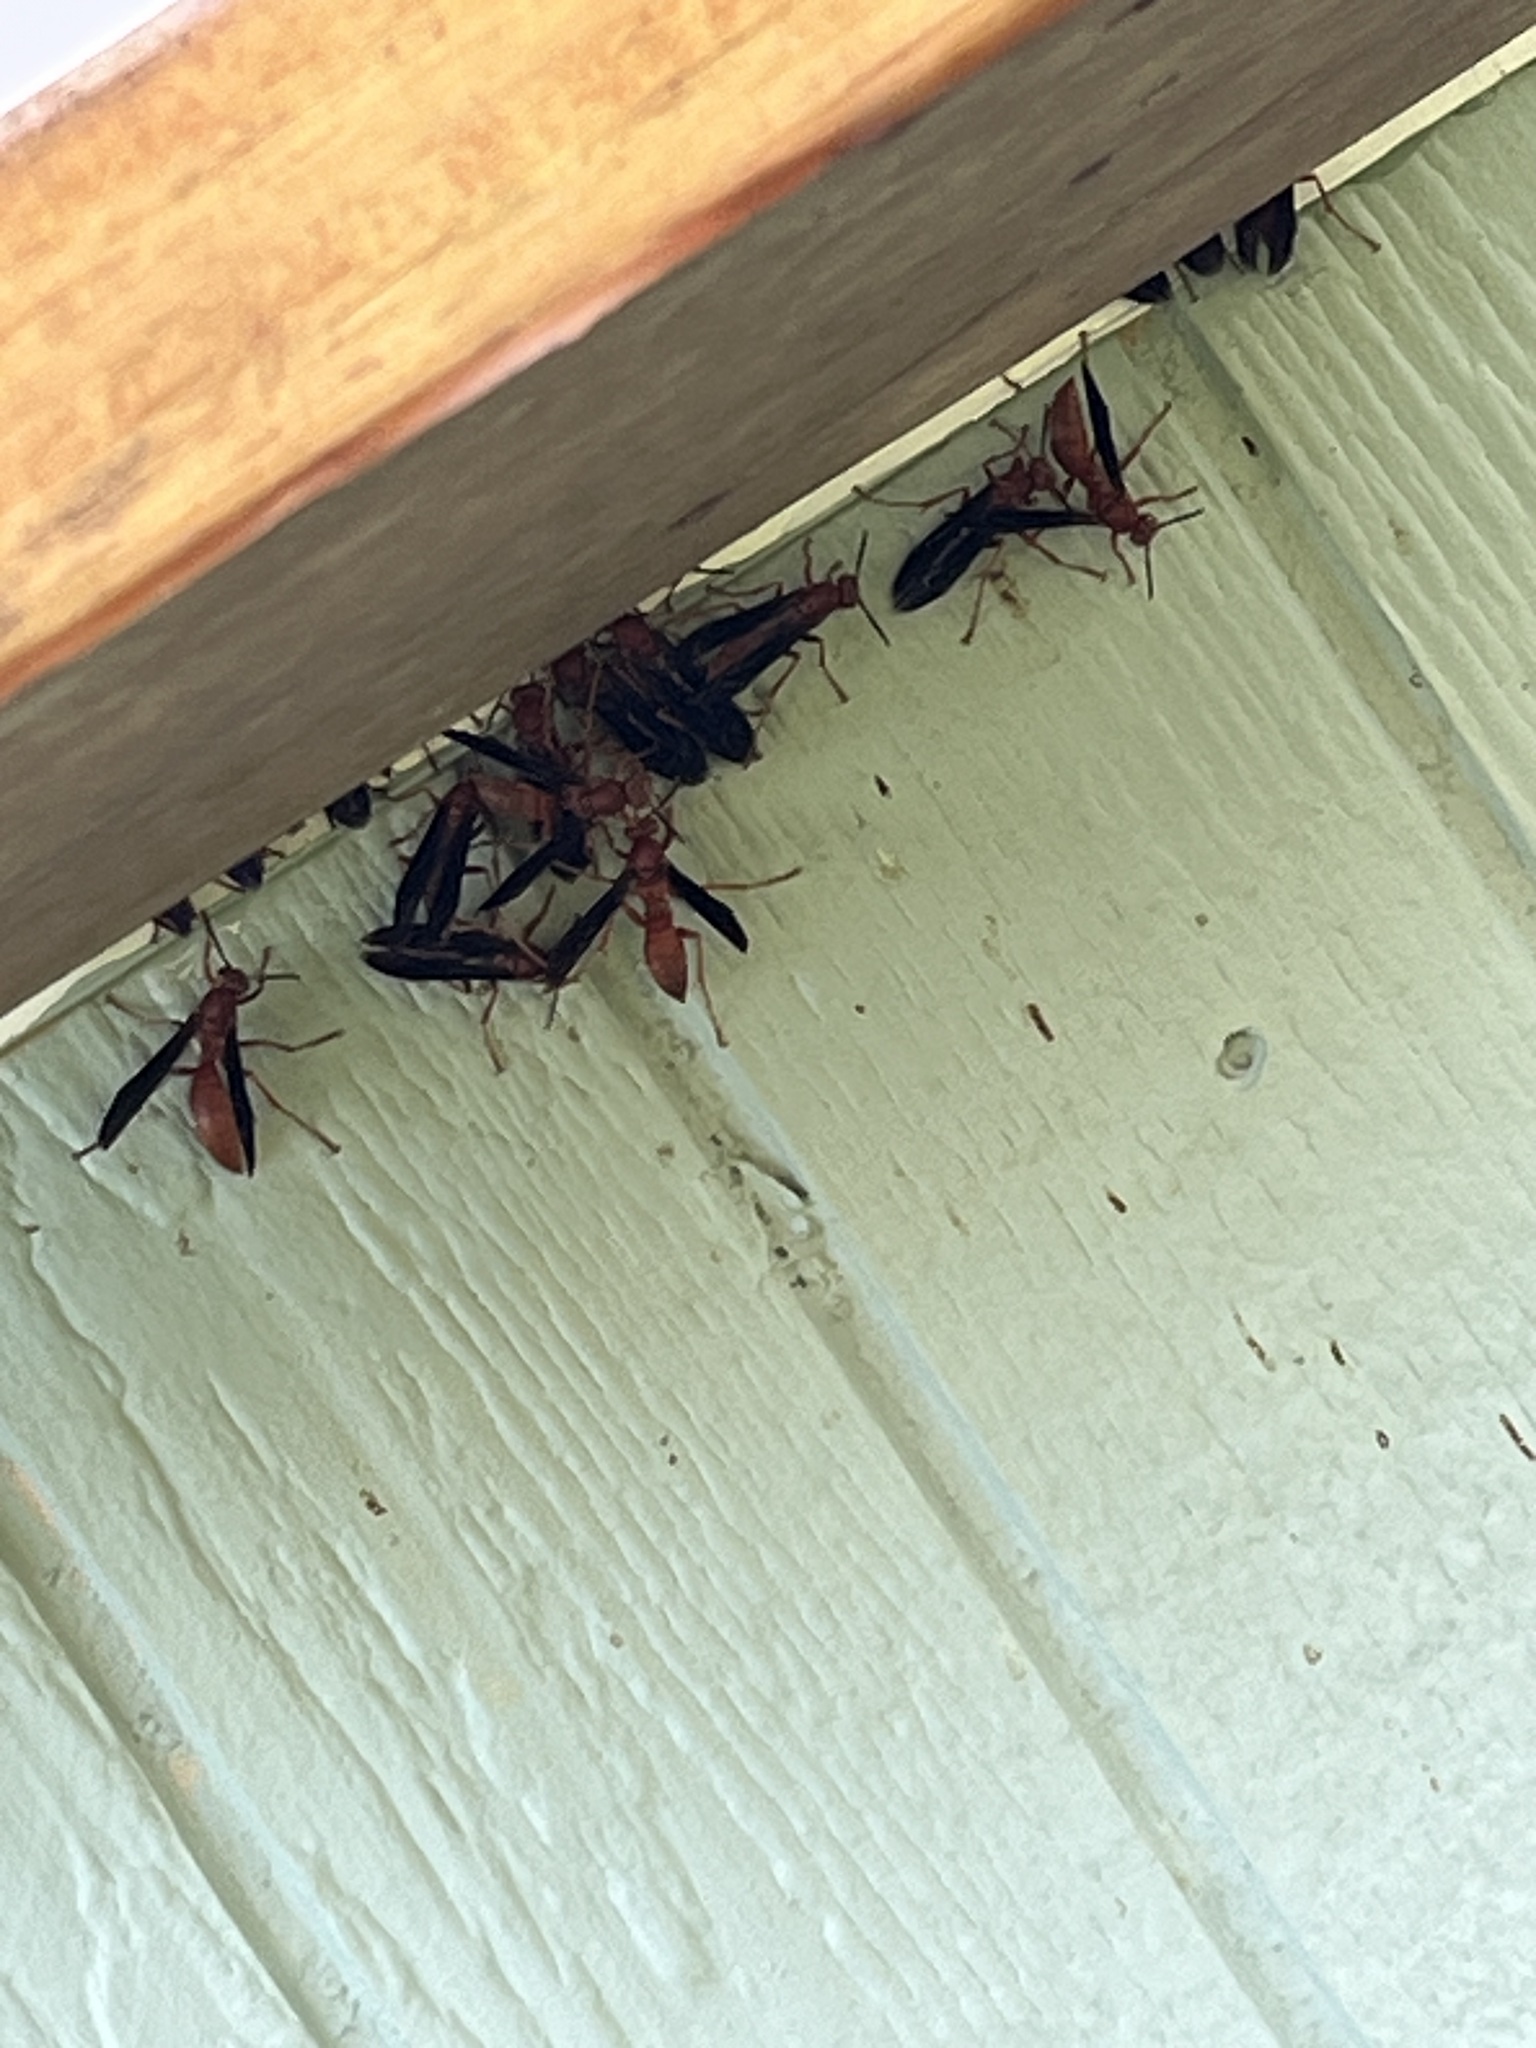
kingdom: Animalia
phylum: Arthropoda
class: Insecta
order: Hymenoptera
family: Eumenidae
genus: Polistes
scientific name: Polistes carolina
